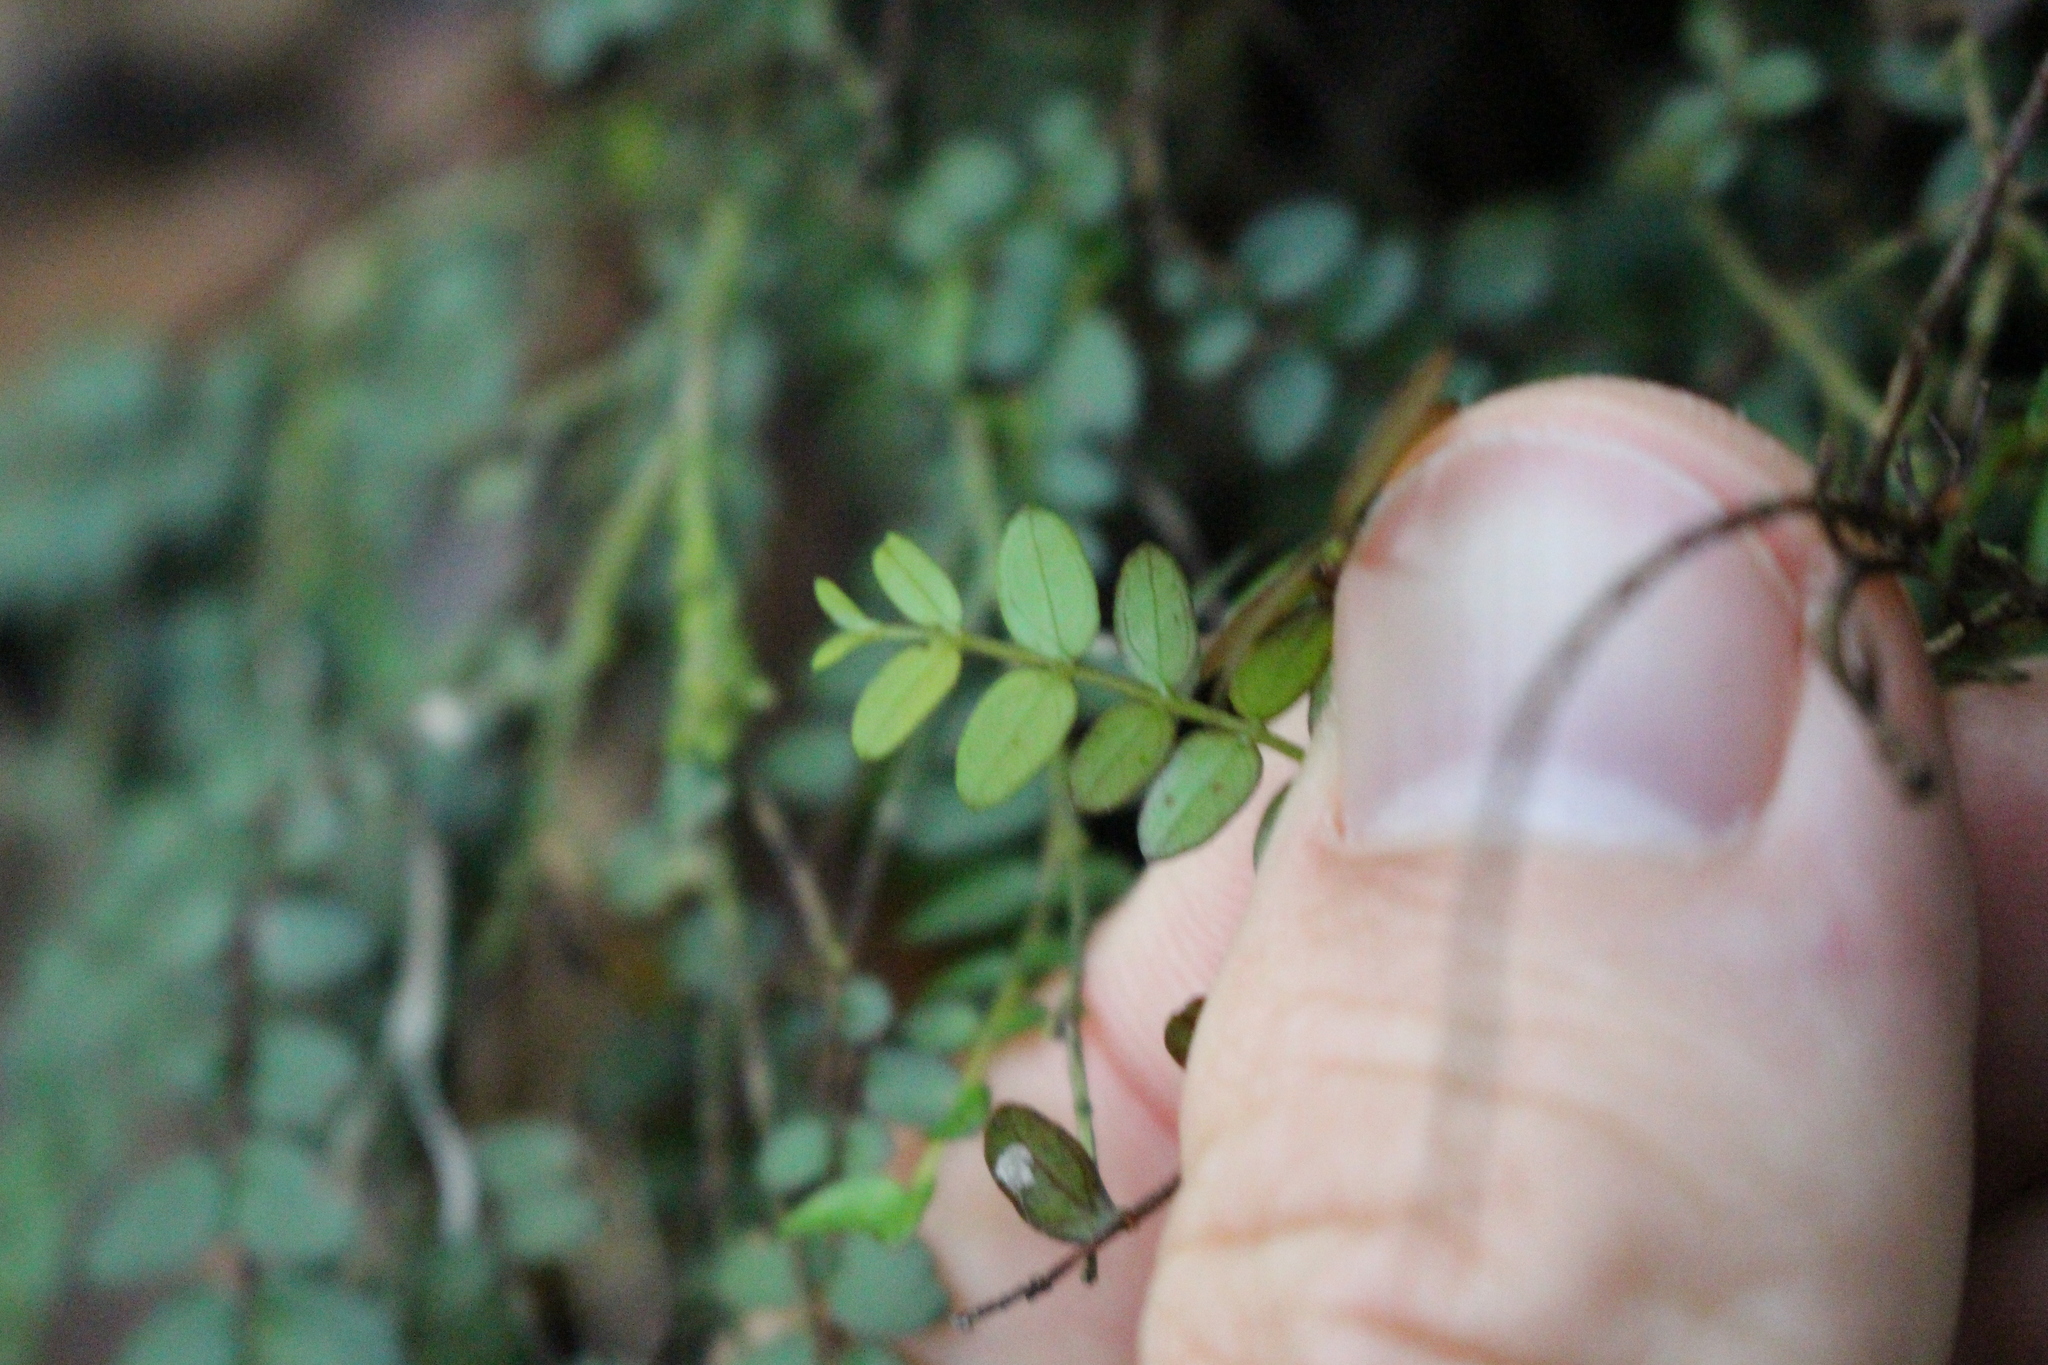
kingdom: Plantae
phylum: Tracheophyta
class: Magnoliopsida
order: Myrtales
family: Myrtaceae
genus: Metrosideros
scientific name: Metrosideros diffusa
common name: Small ratavine
